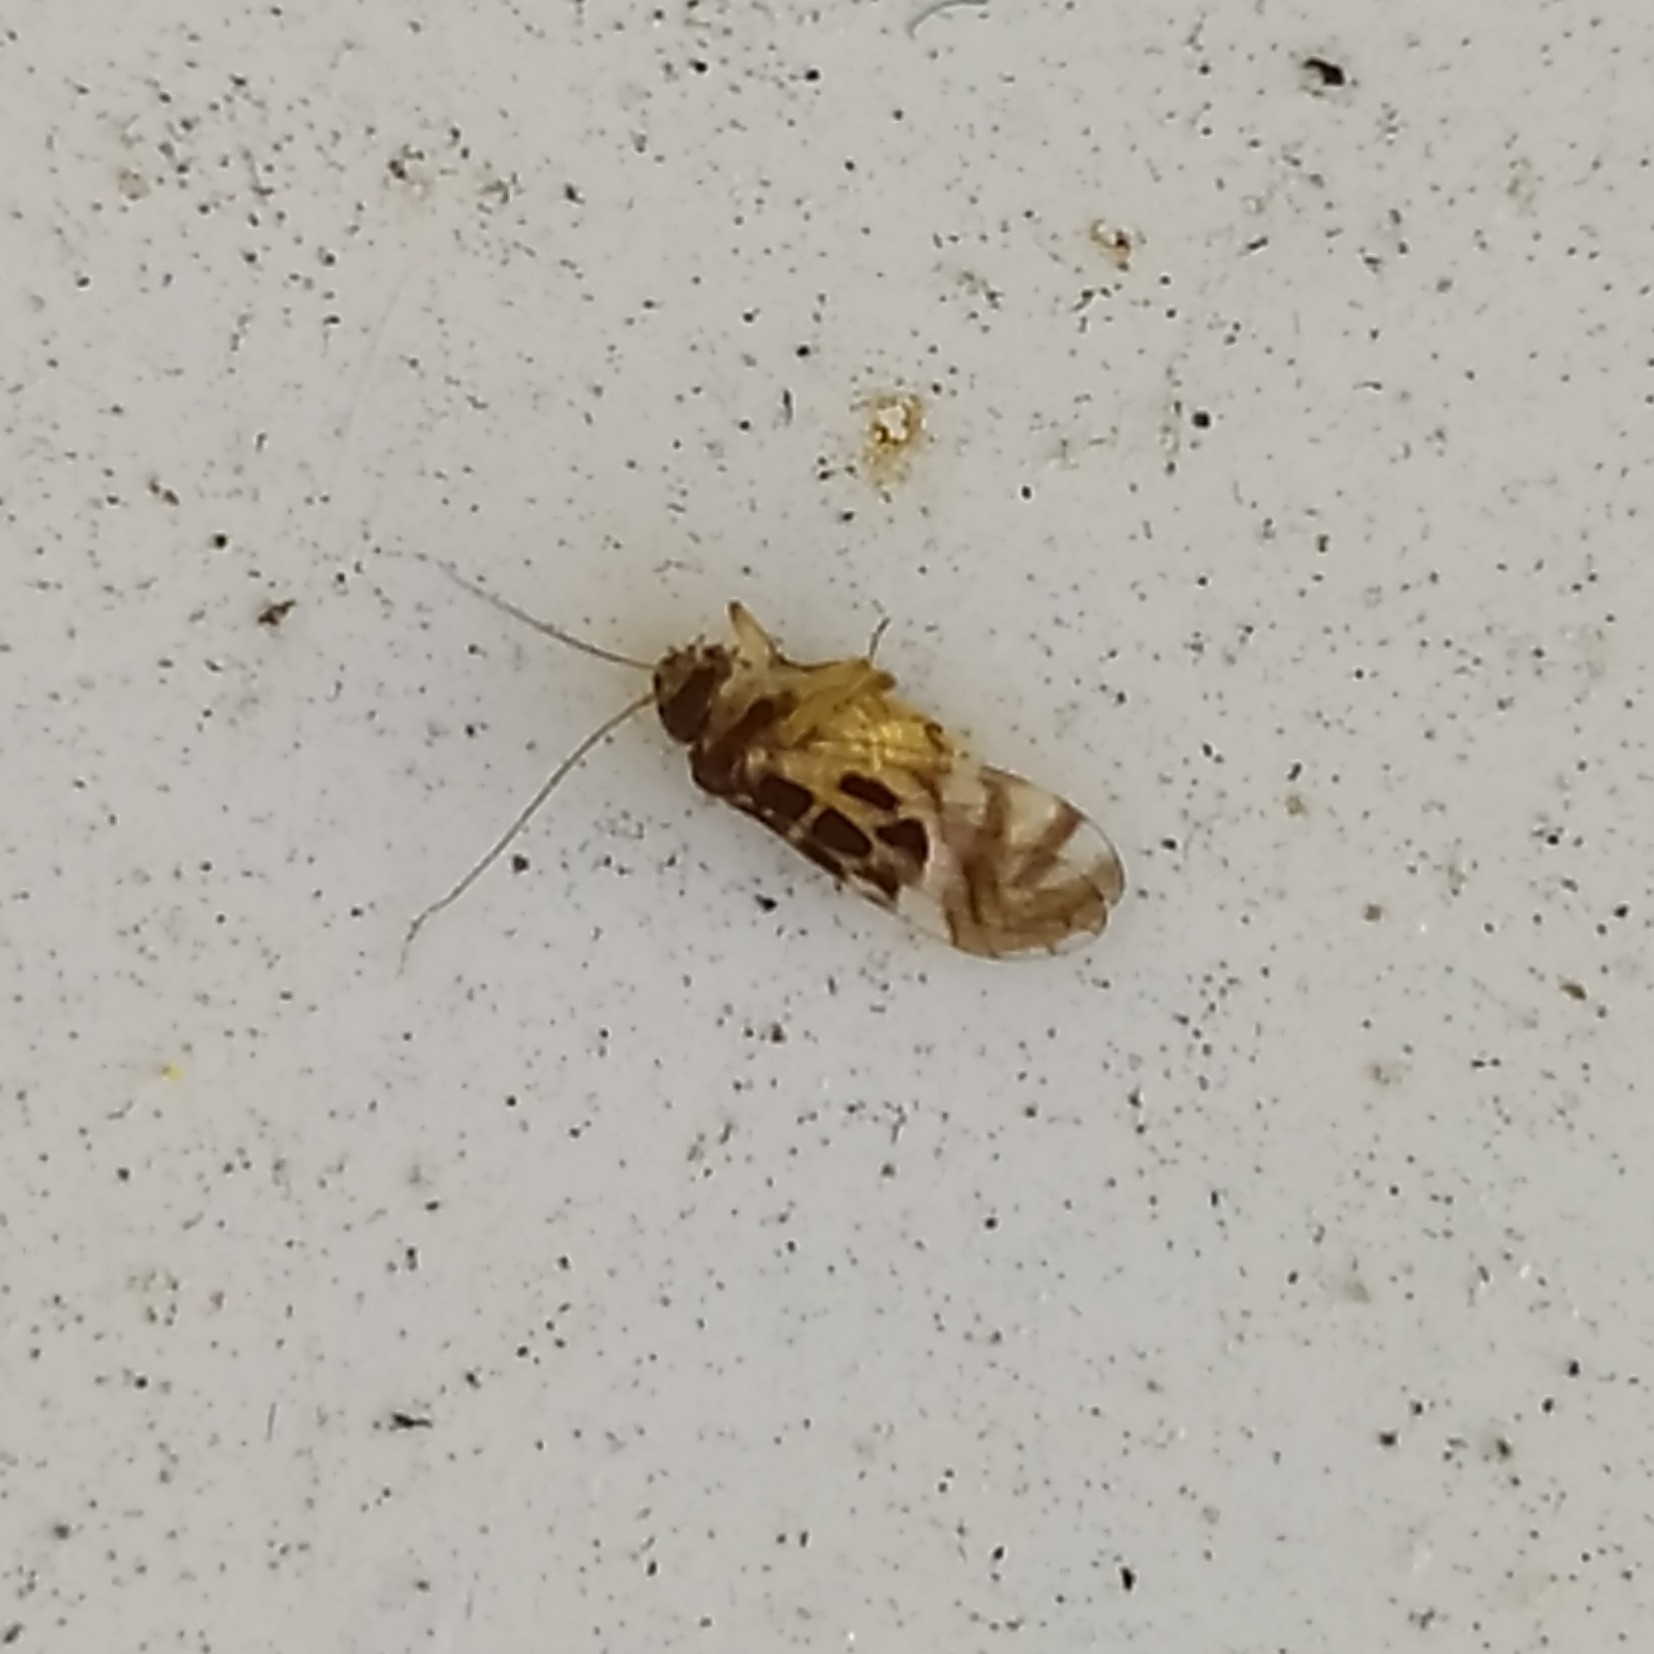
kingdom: Animalia
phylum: Arthropoda
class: Insecta
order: Psocodea
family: Stenopsocidae
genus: Graphopsocus
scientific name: Graphopsocus cruciatus
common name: Lizard bark louse
